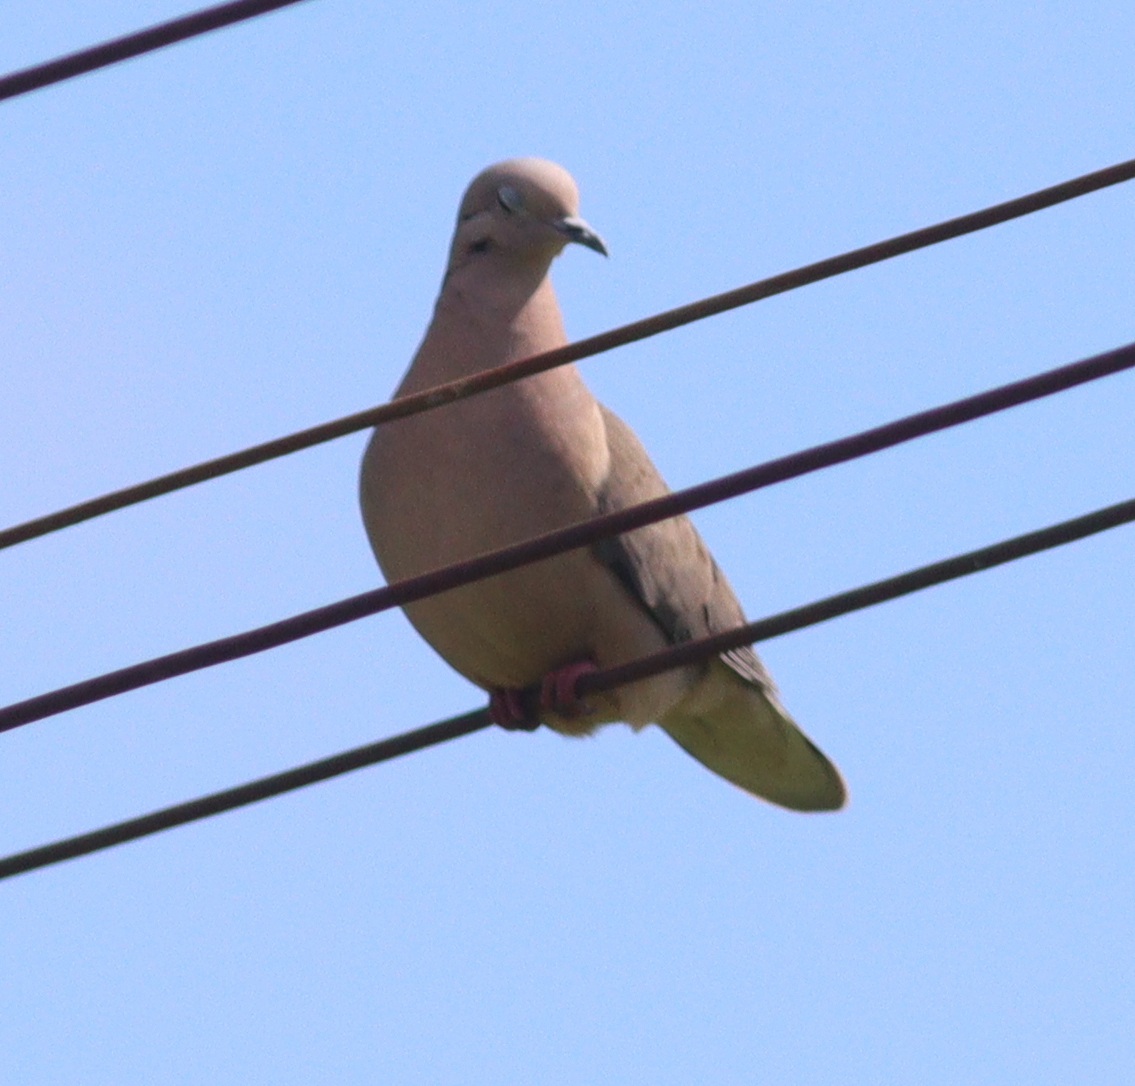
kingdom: Animalia
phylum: Chordata
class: Aves
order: Columbiformes
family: Columbidae
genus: Zenaida
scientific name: Zenaida auriculata
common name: Eared dove
